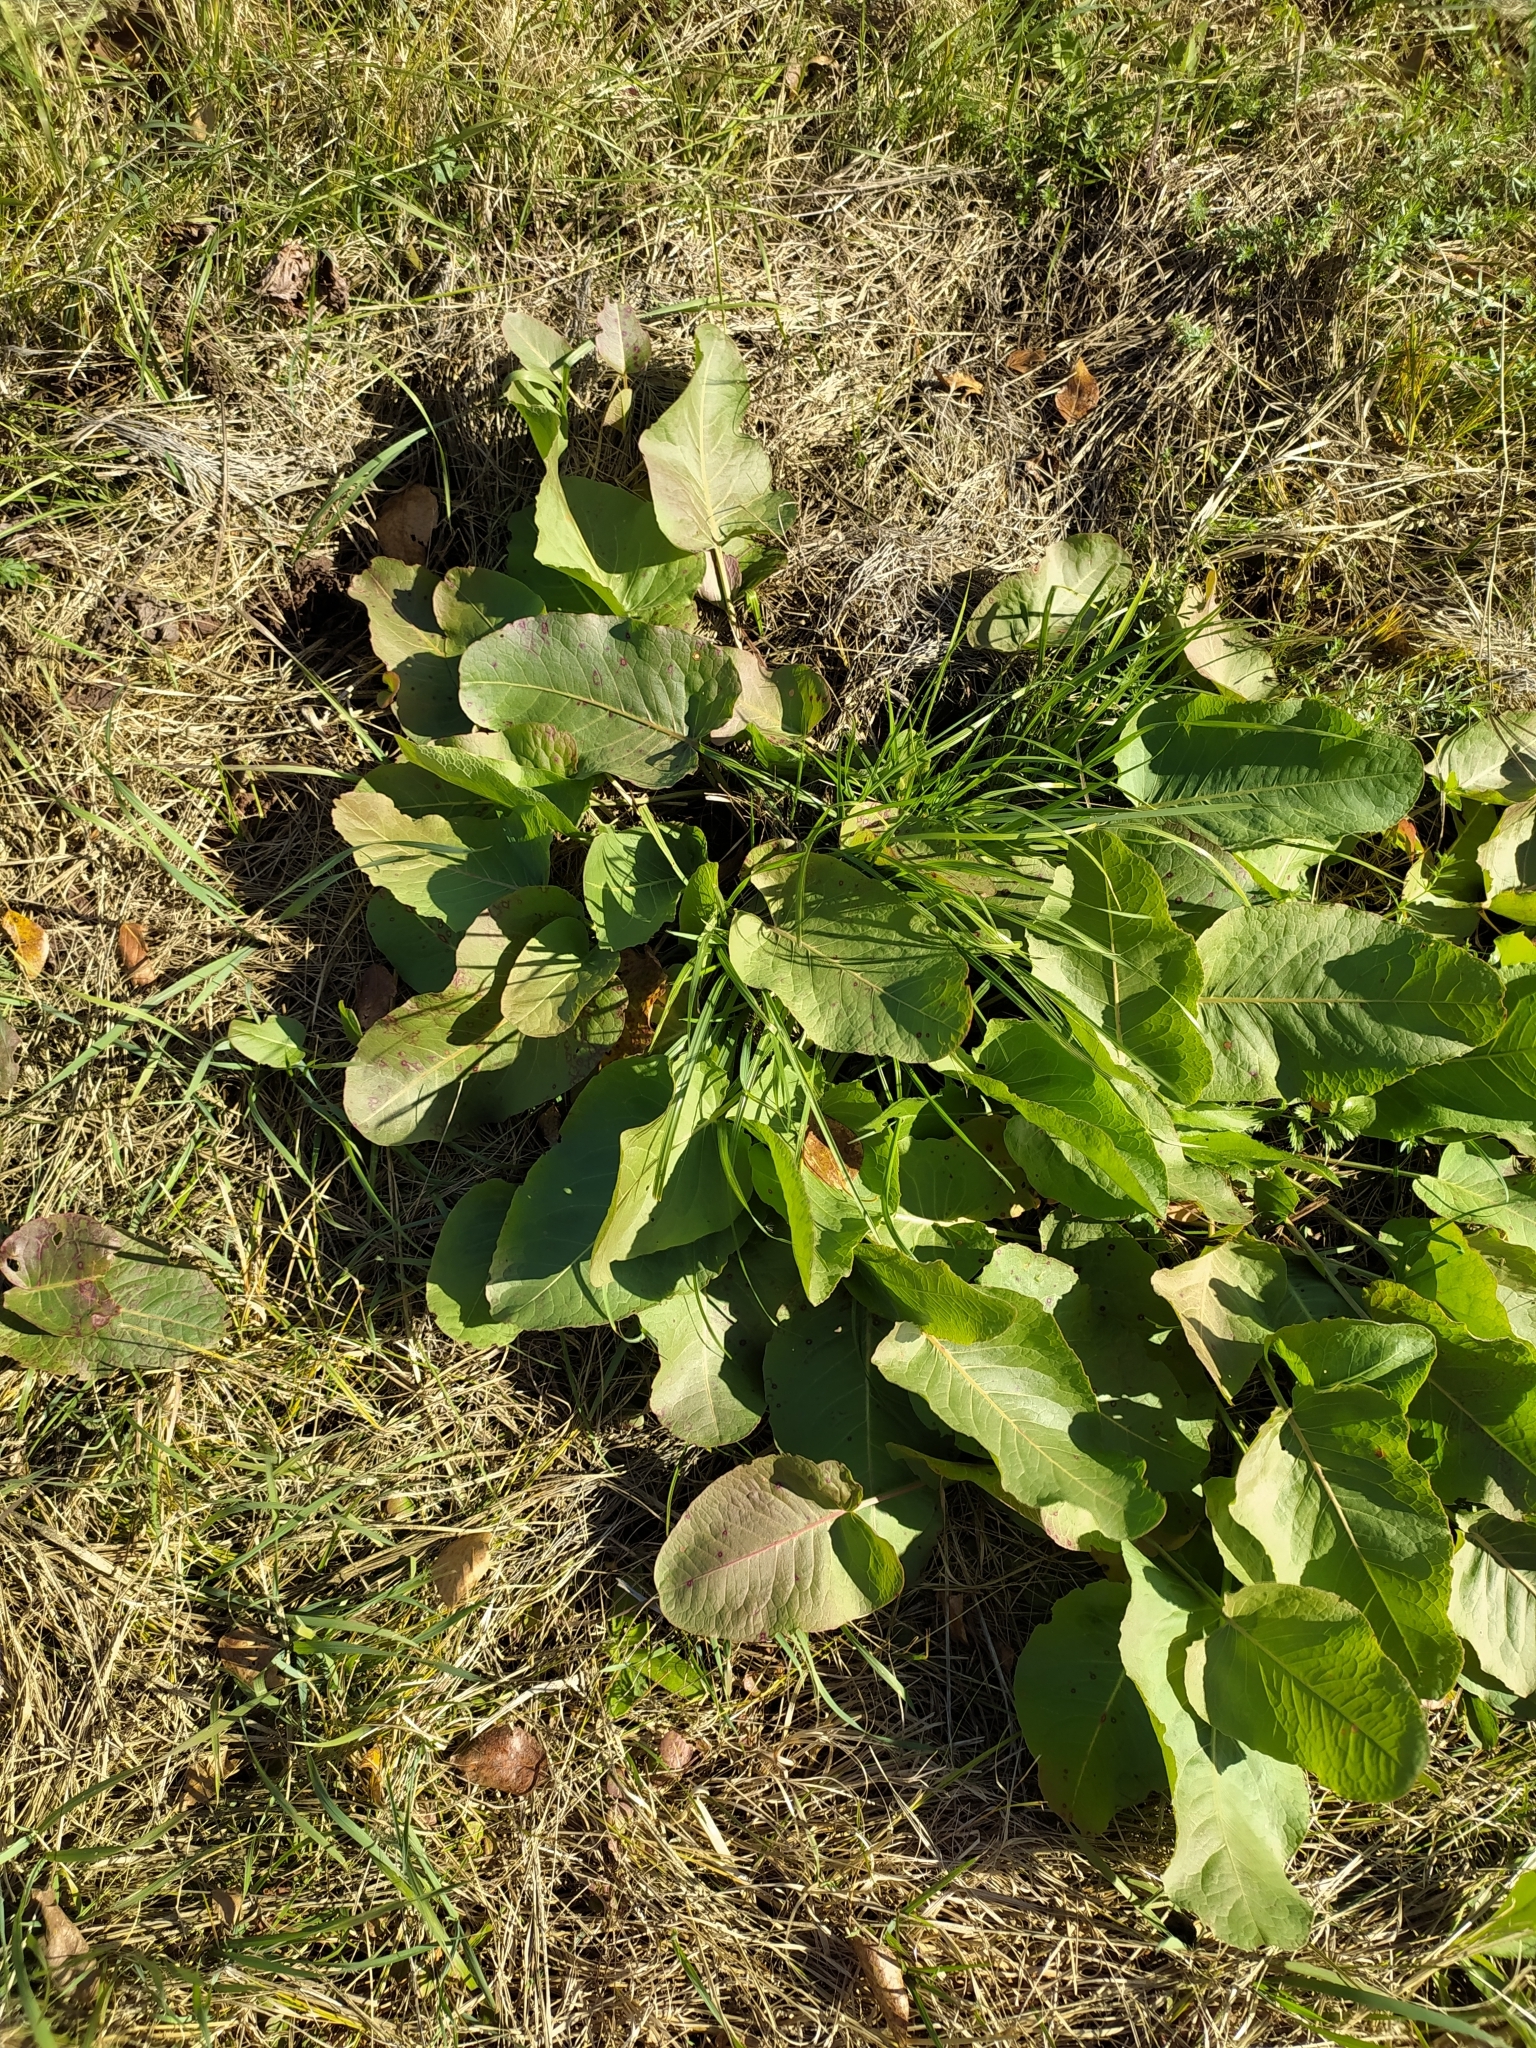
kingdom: Plantae
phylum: Tracheophyta
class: Magnoliopsida
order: Caryophyllales
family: Polygonaceae
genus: Rumex
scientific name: Rumex confertus
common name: Russian dock
